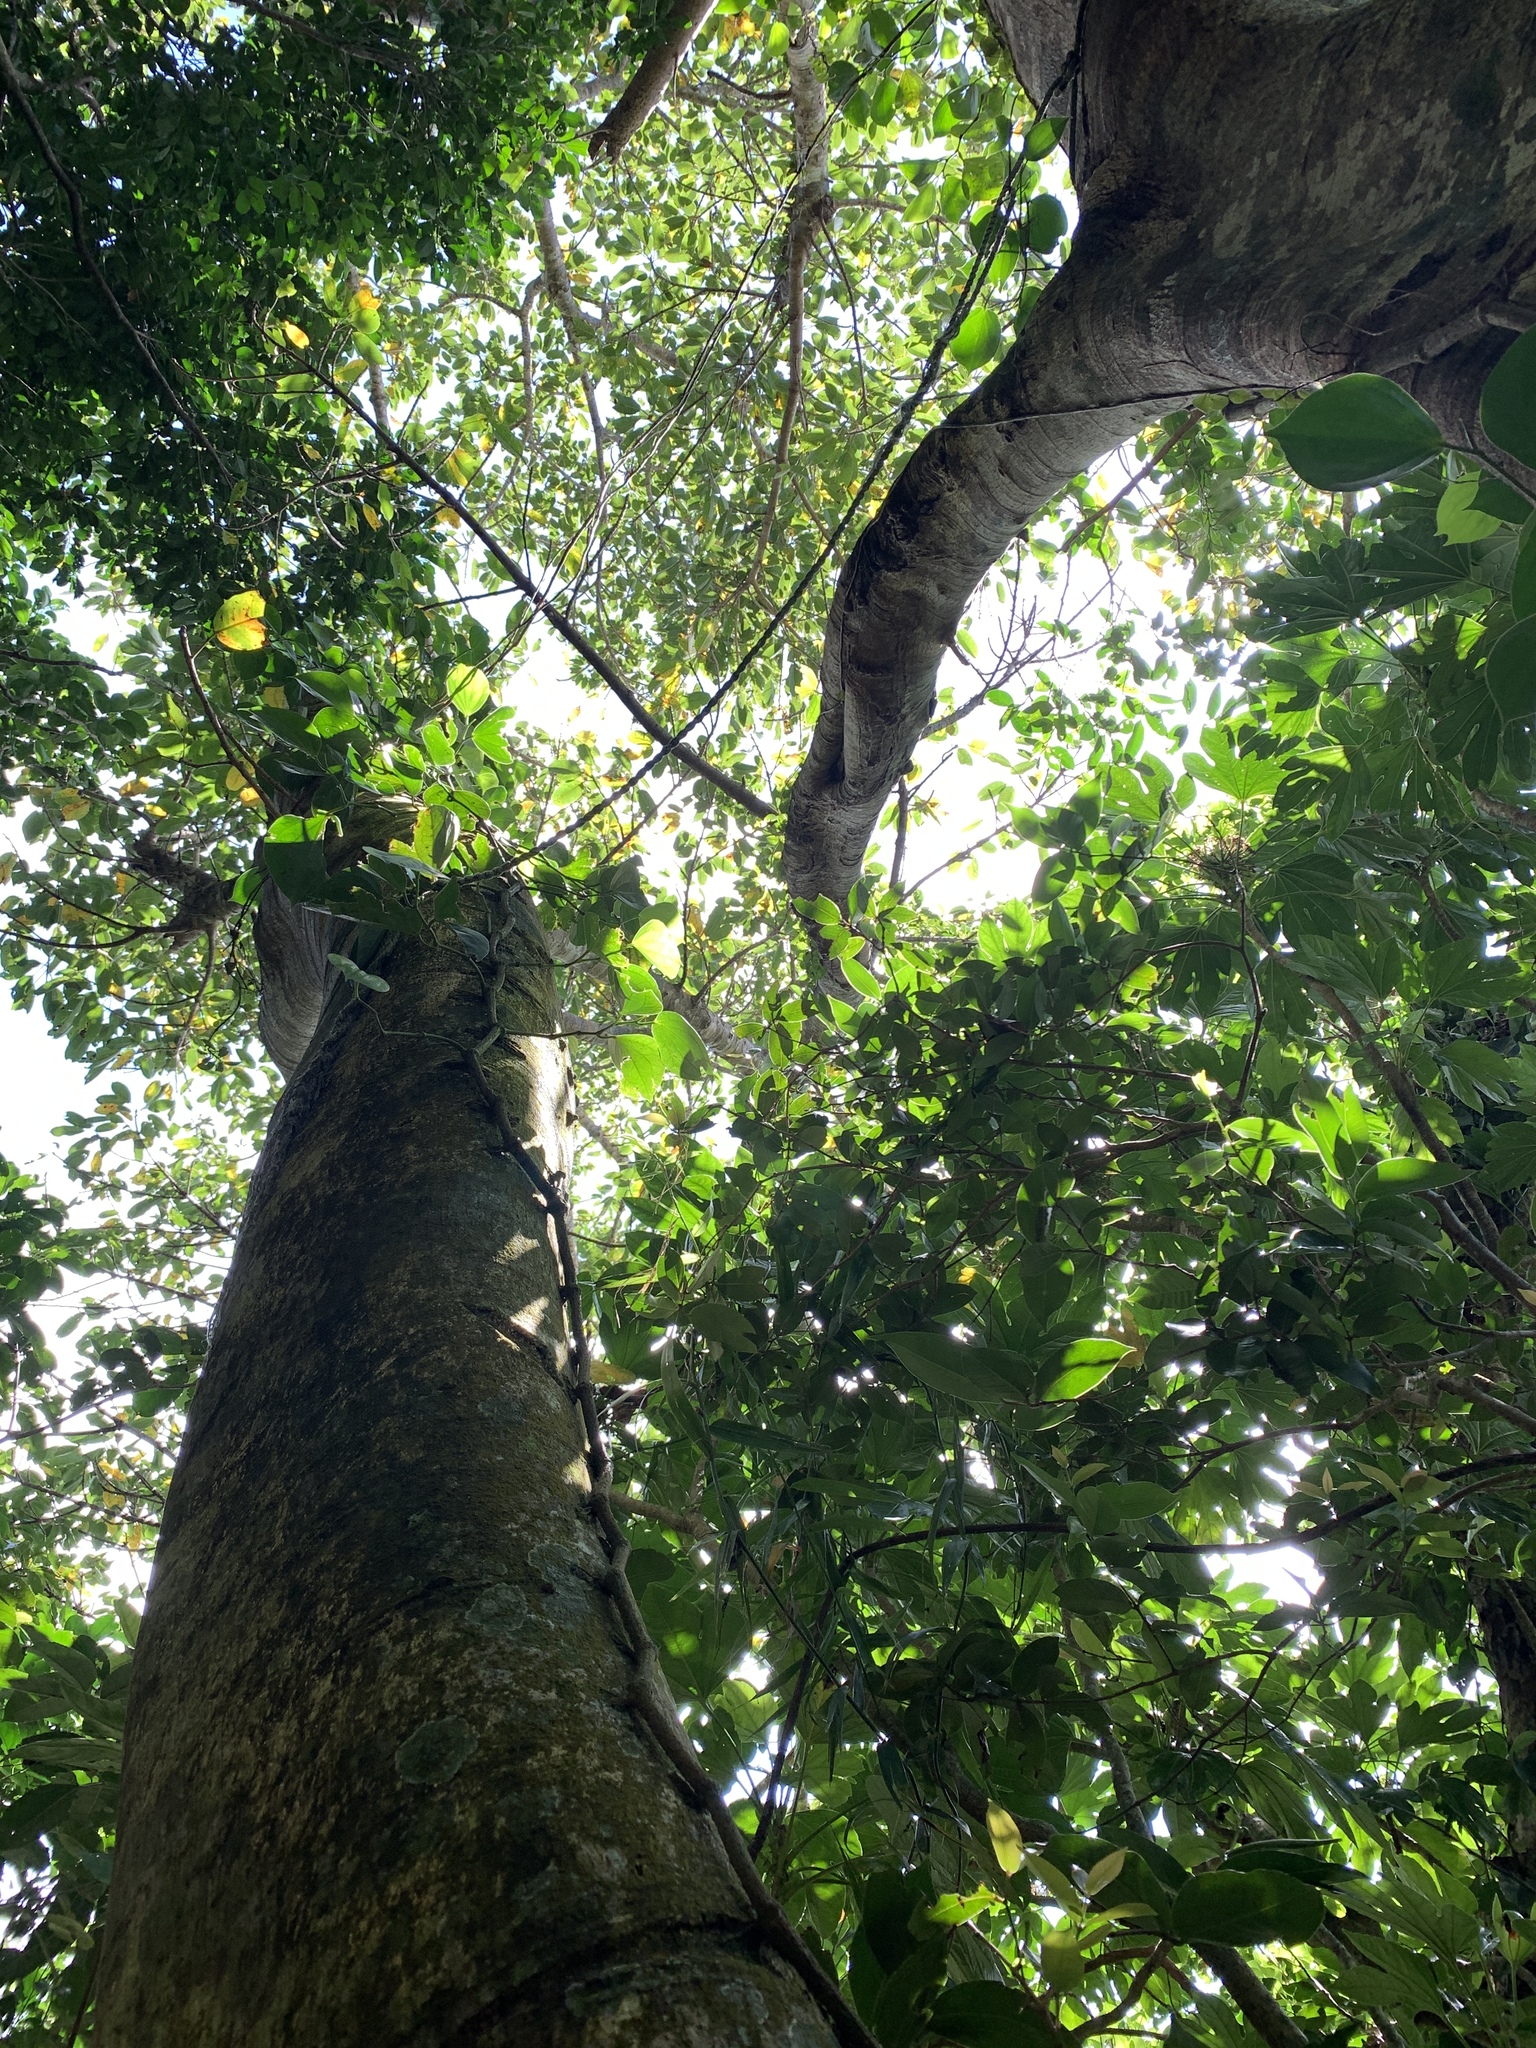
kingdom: Plantae
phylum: Tracheophyta
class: Magnoliopsida
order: Rosales
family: Moraceae
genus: Ficus
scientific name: Ficus subpisocarpa
